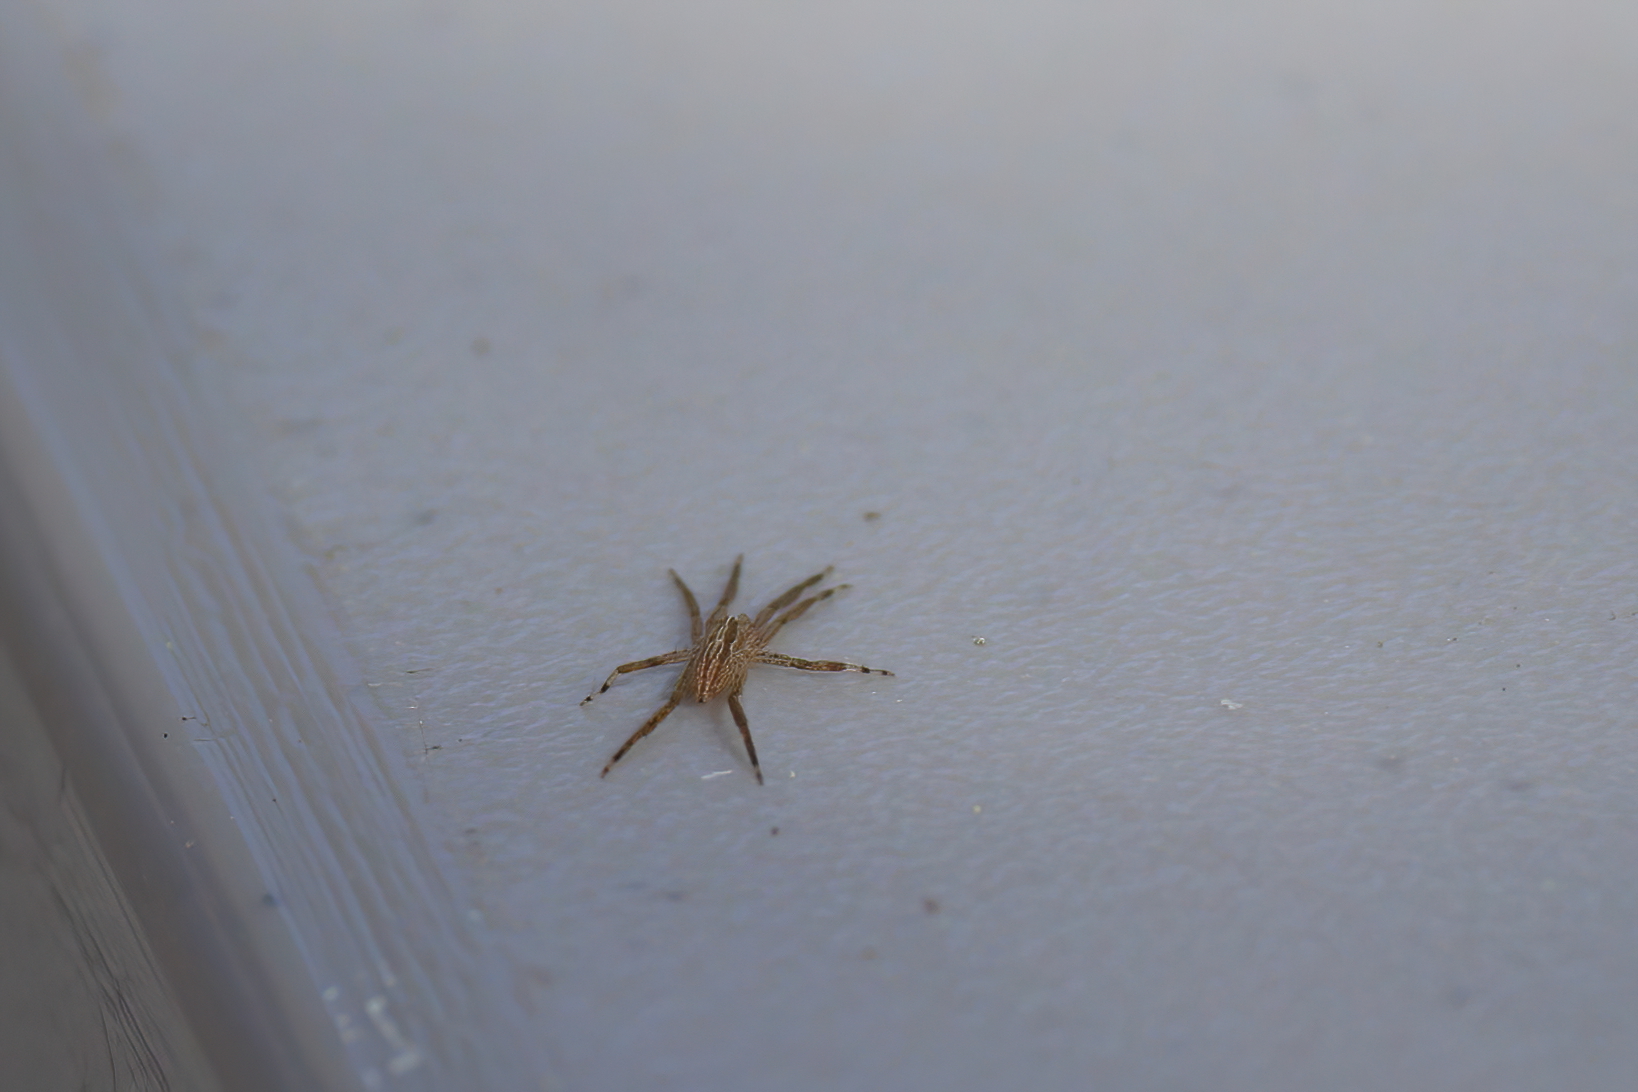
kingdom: Animalia
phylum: Arthropoda
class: Arachnida
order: Araneae
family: Miturgidae
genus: Zora
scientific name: Zora pumila
